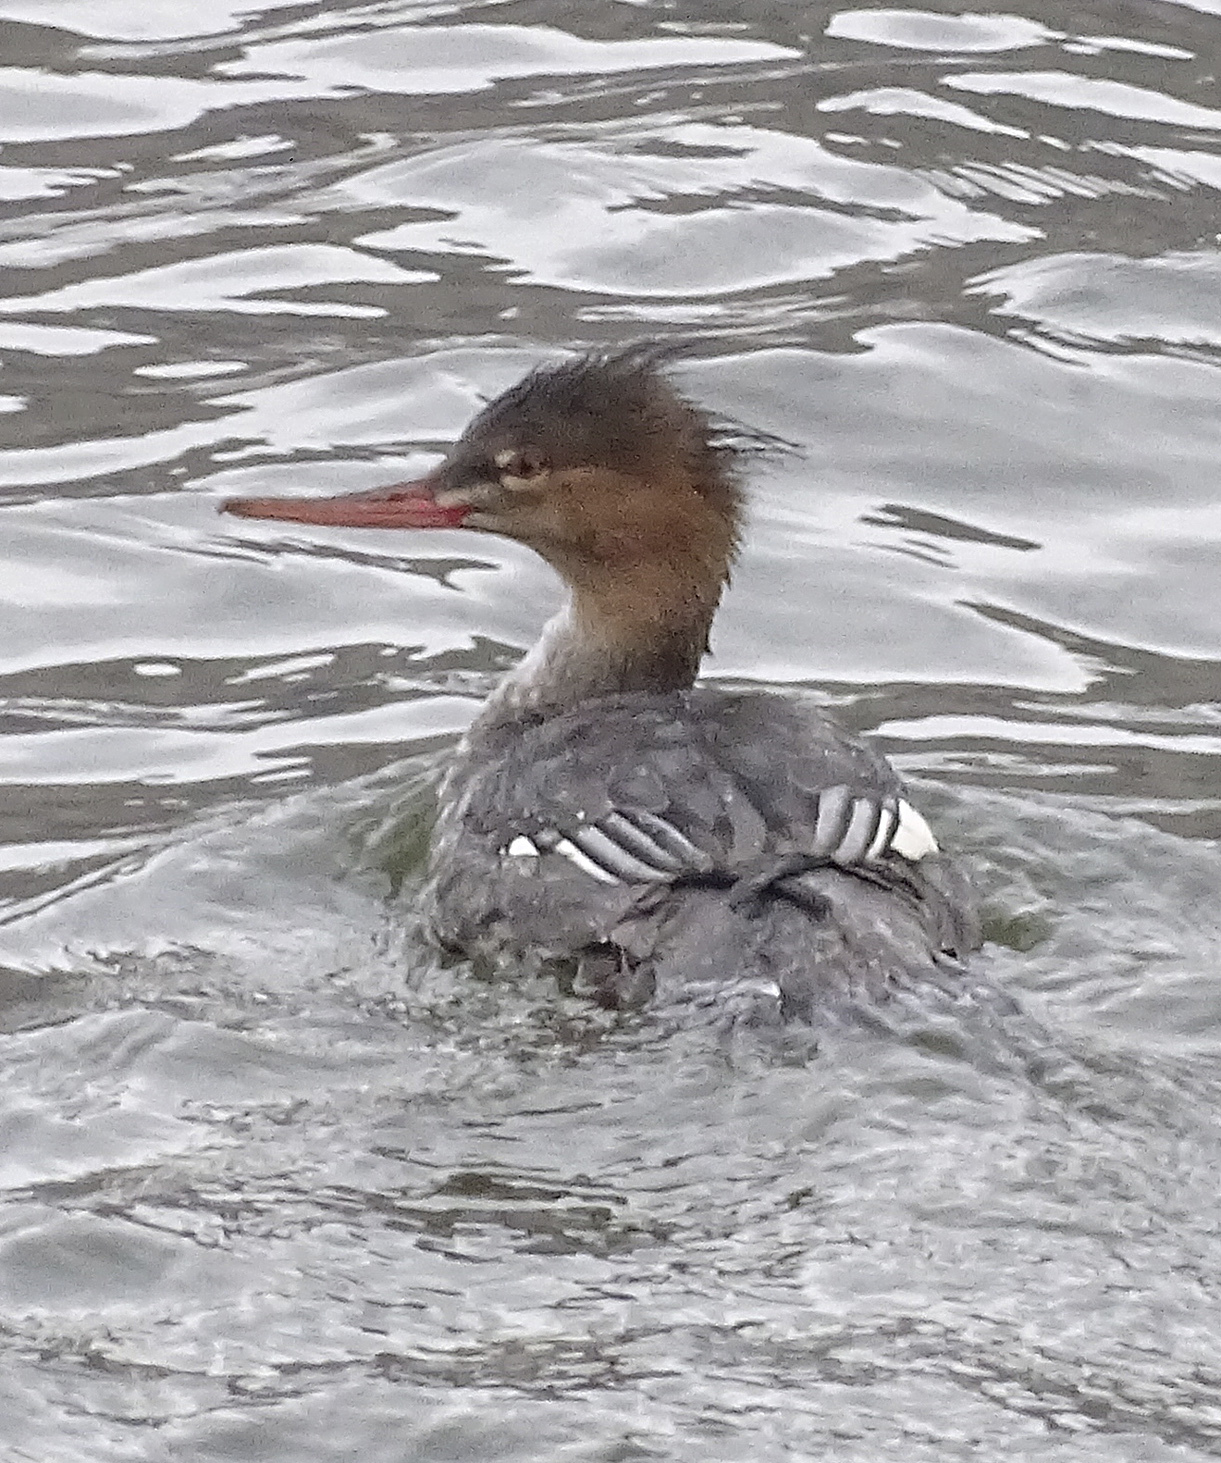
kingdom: Animalia
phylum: Chordata
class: Aves
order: Anseriformes
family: Anatidae
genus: Mergus
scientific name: Mergus serrator
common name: Red-breasted merganser
